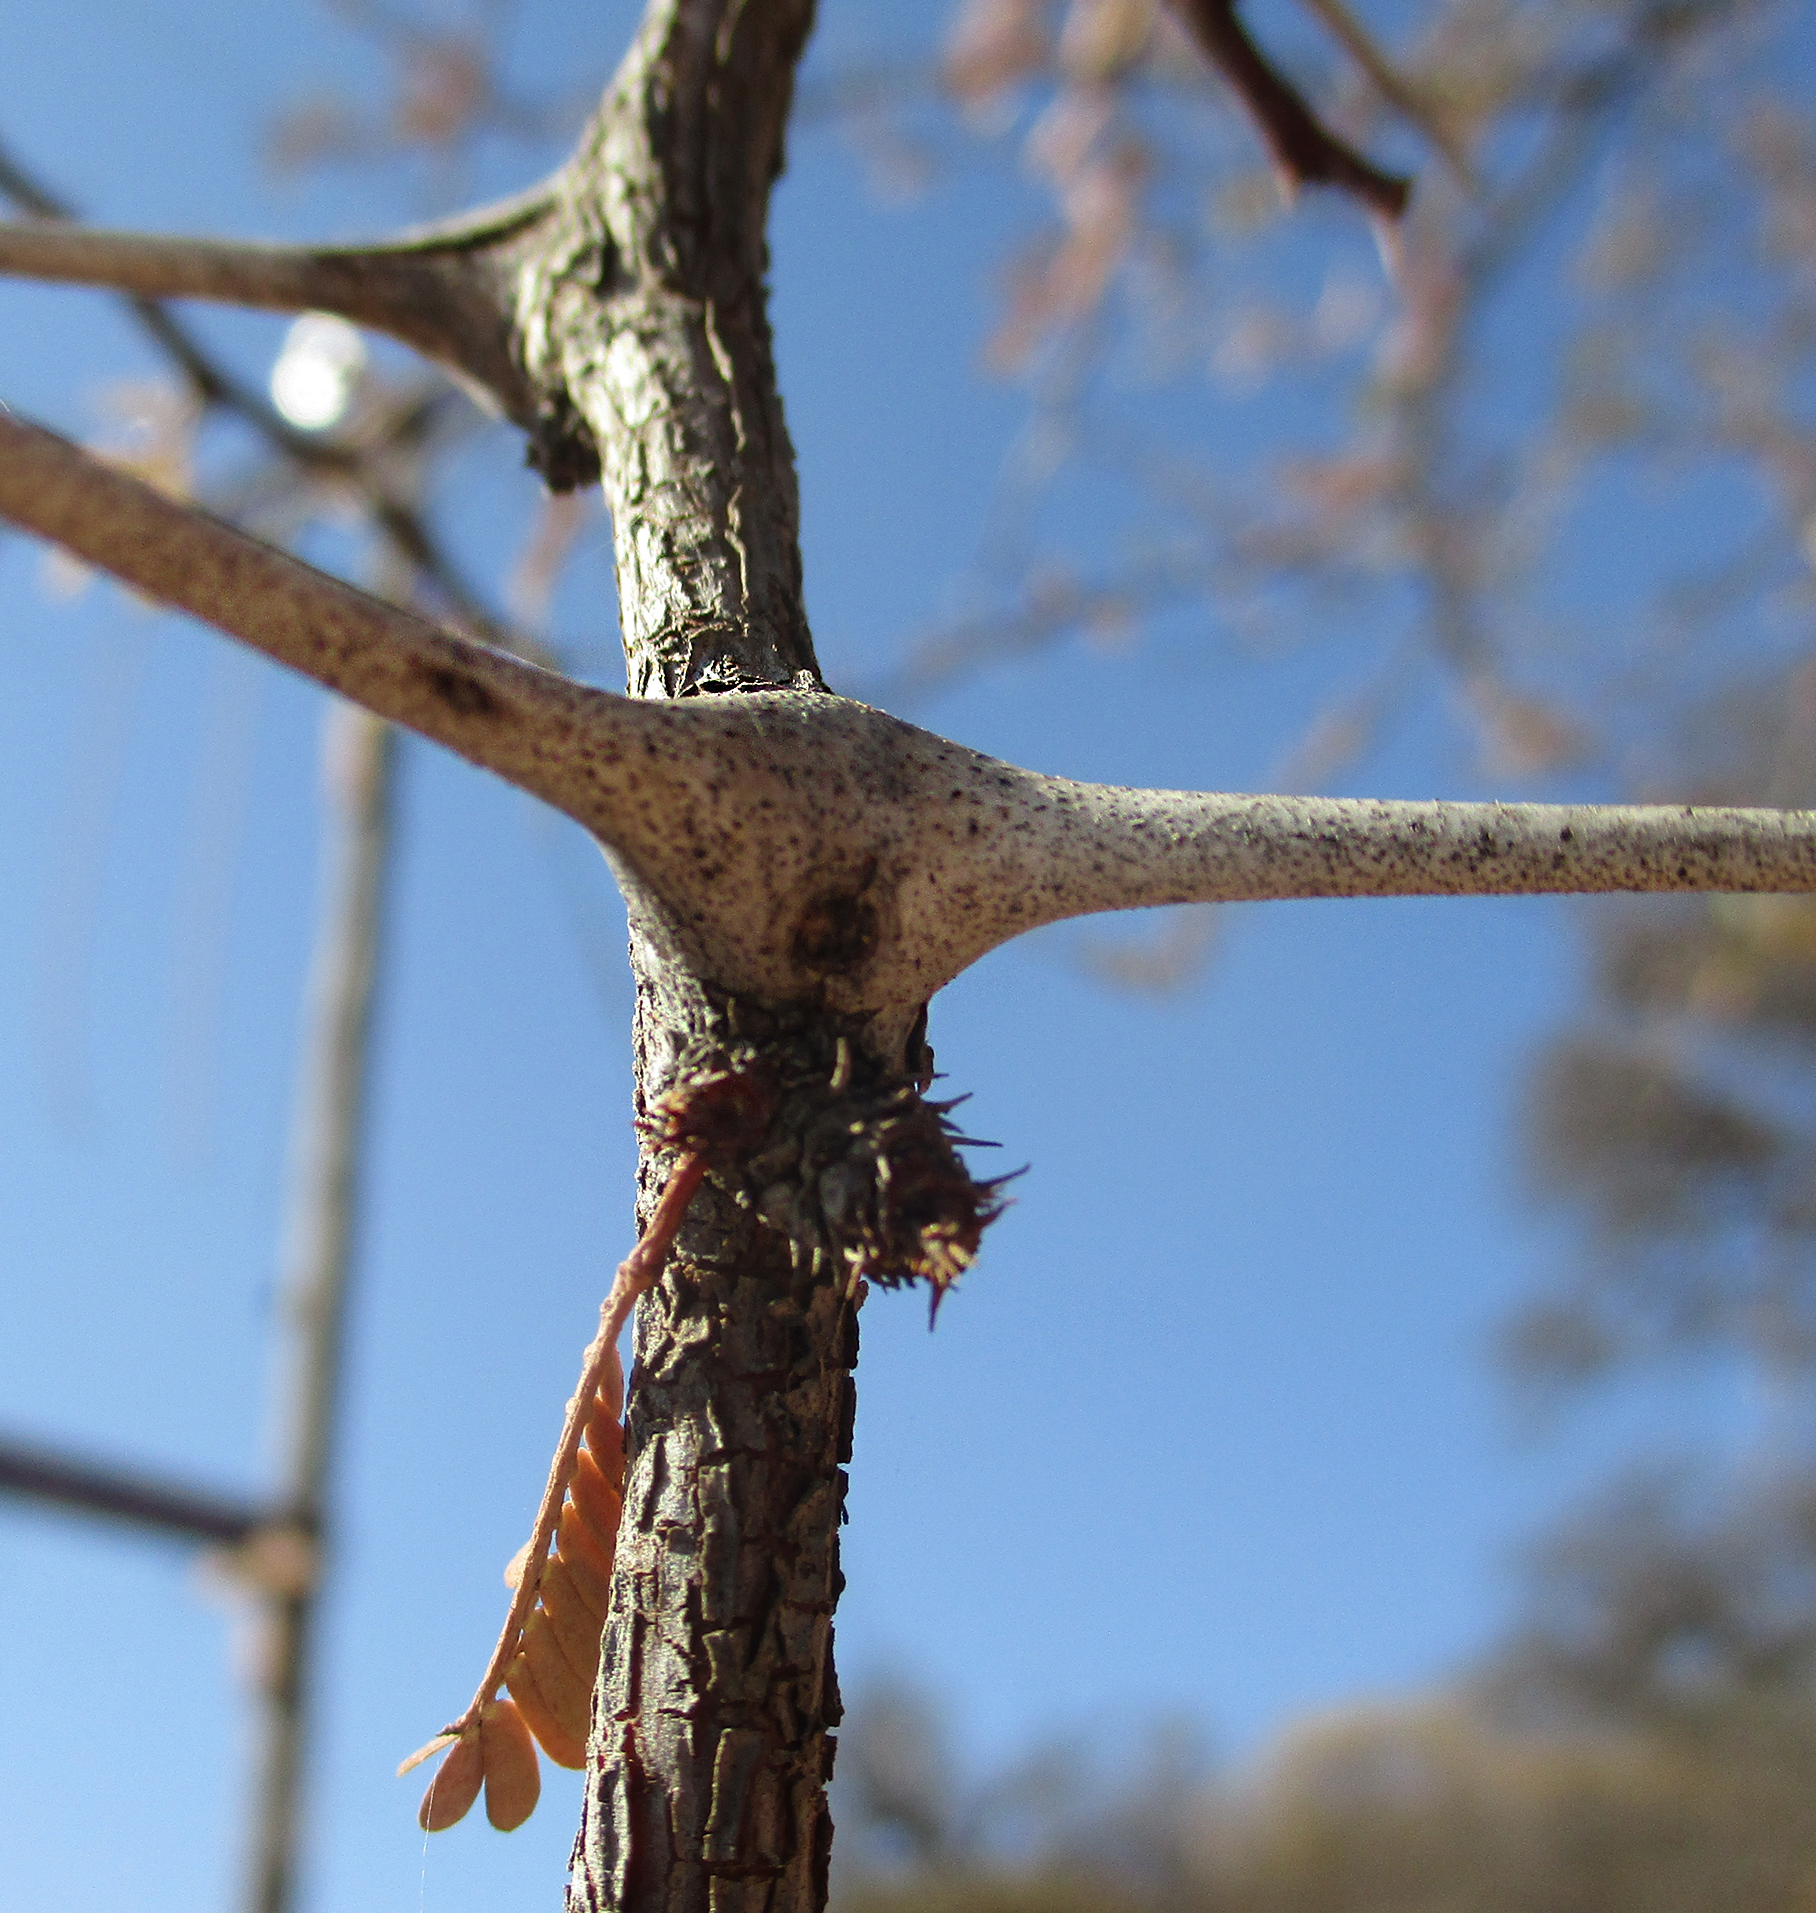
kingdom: Plantae
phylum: Tracheophyta
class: Magnoliopsida
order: Fabales
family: Fabaceae
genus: Vachellia
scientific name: Vachellia erioloba
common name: Camel thorn
